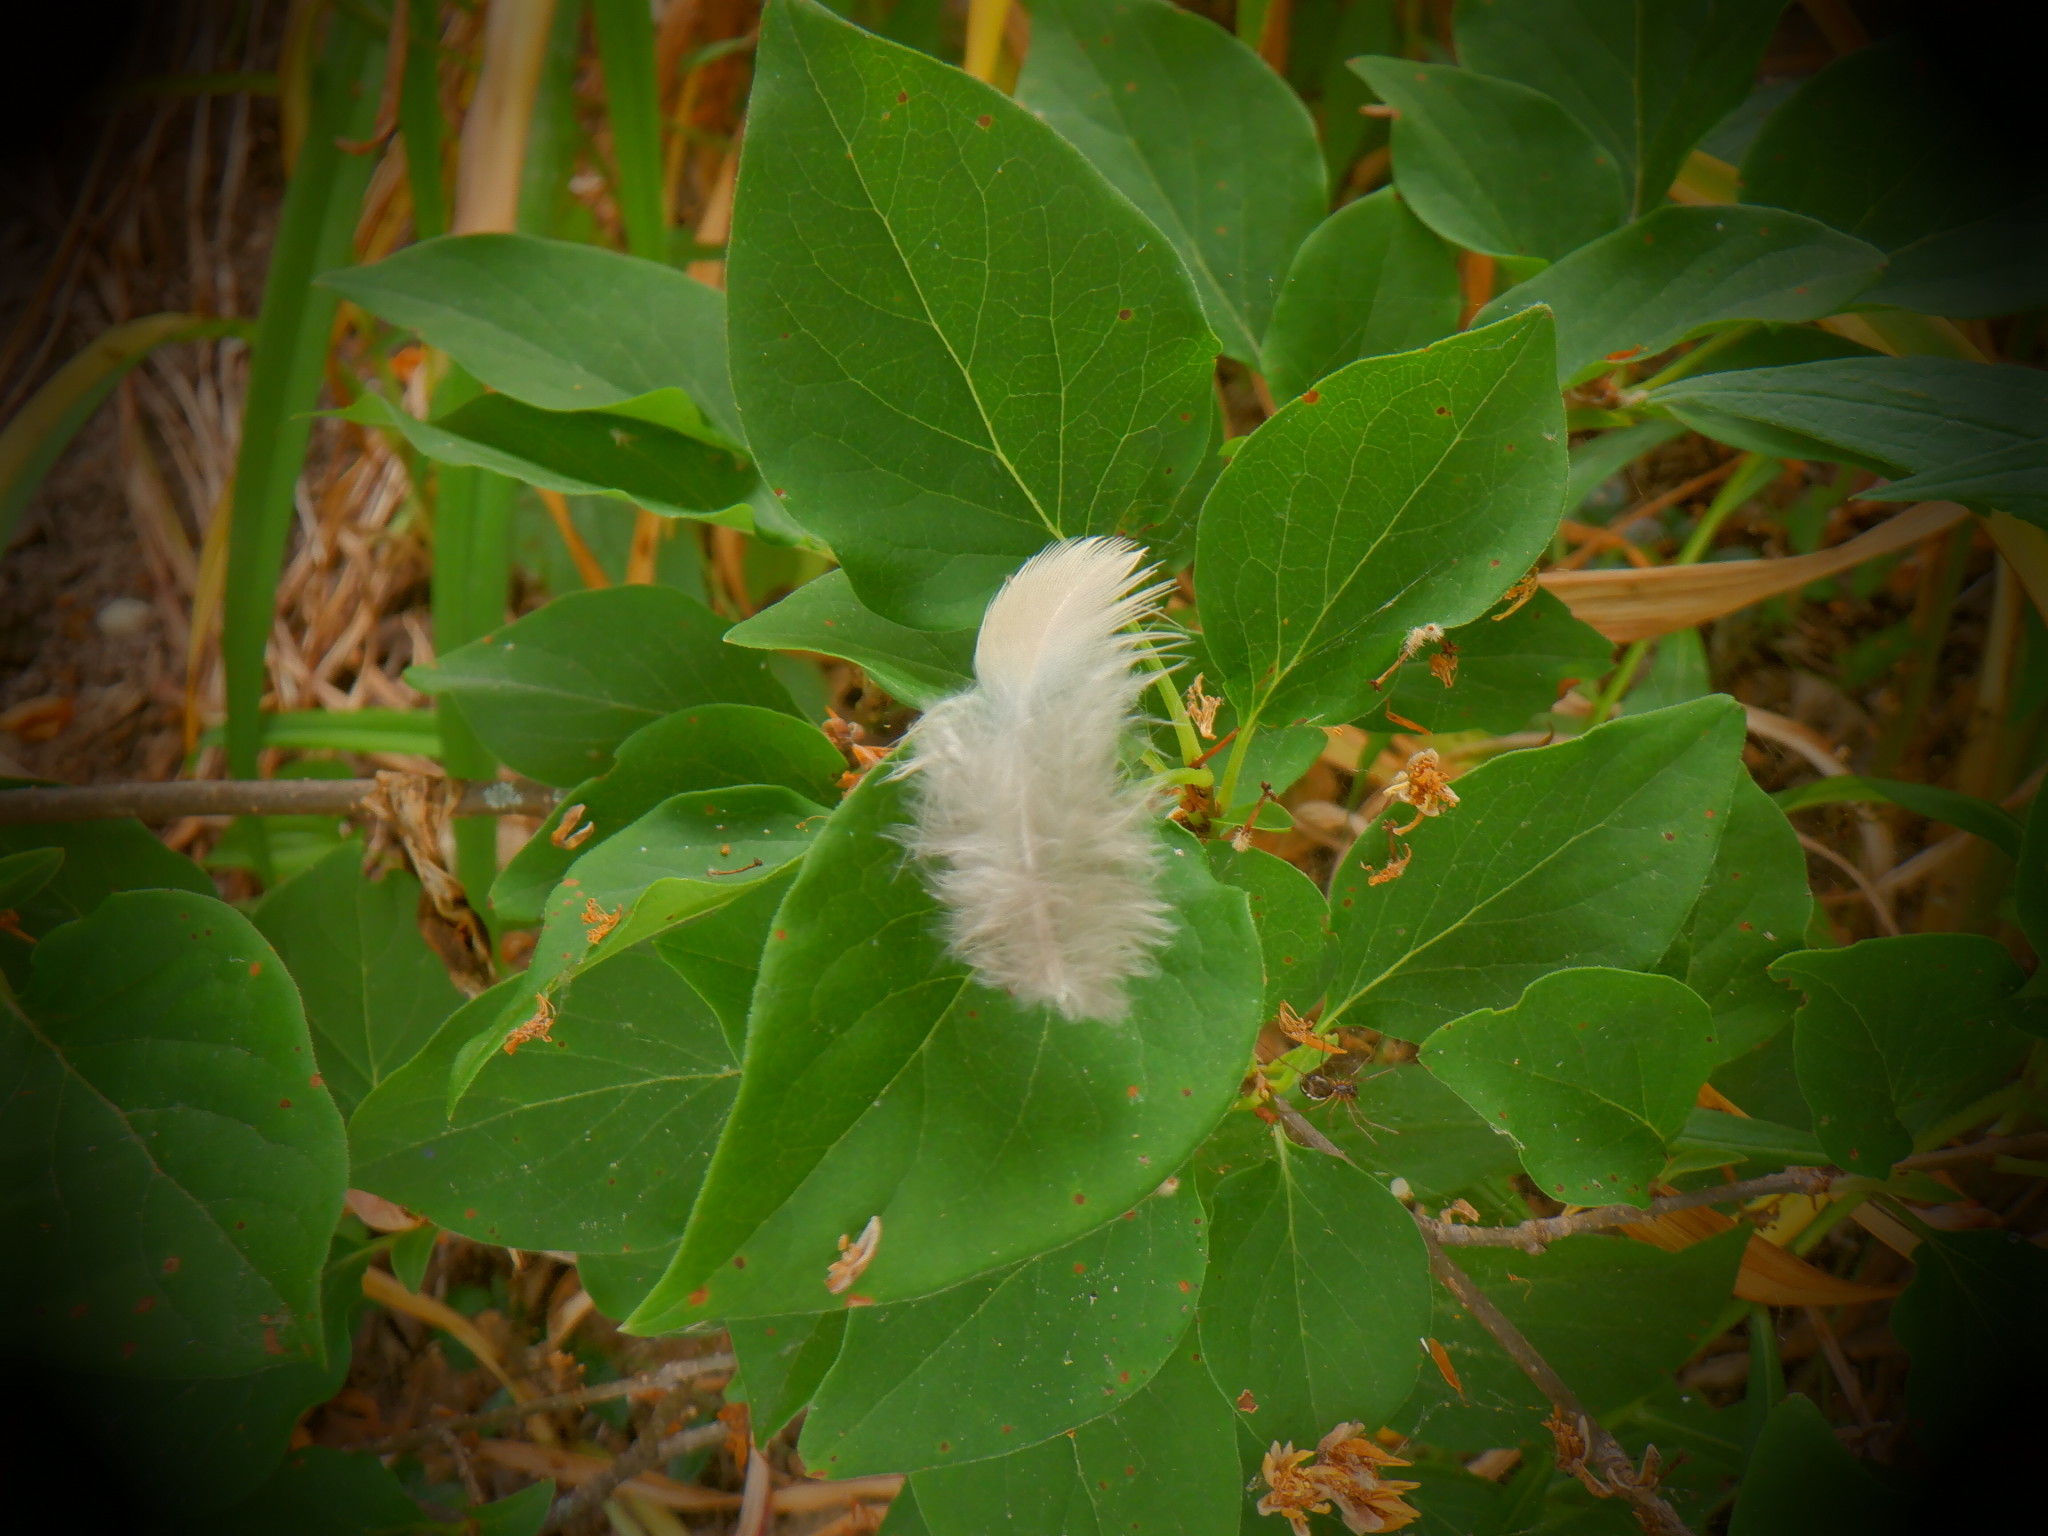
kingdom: Animalia
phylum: Chordata
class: Aves
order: Columbiformes
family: Columbidae
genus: Zenaida
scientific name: Zenaida macroura
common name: Mourning dove
